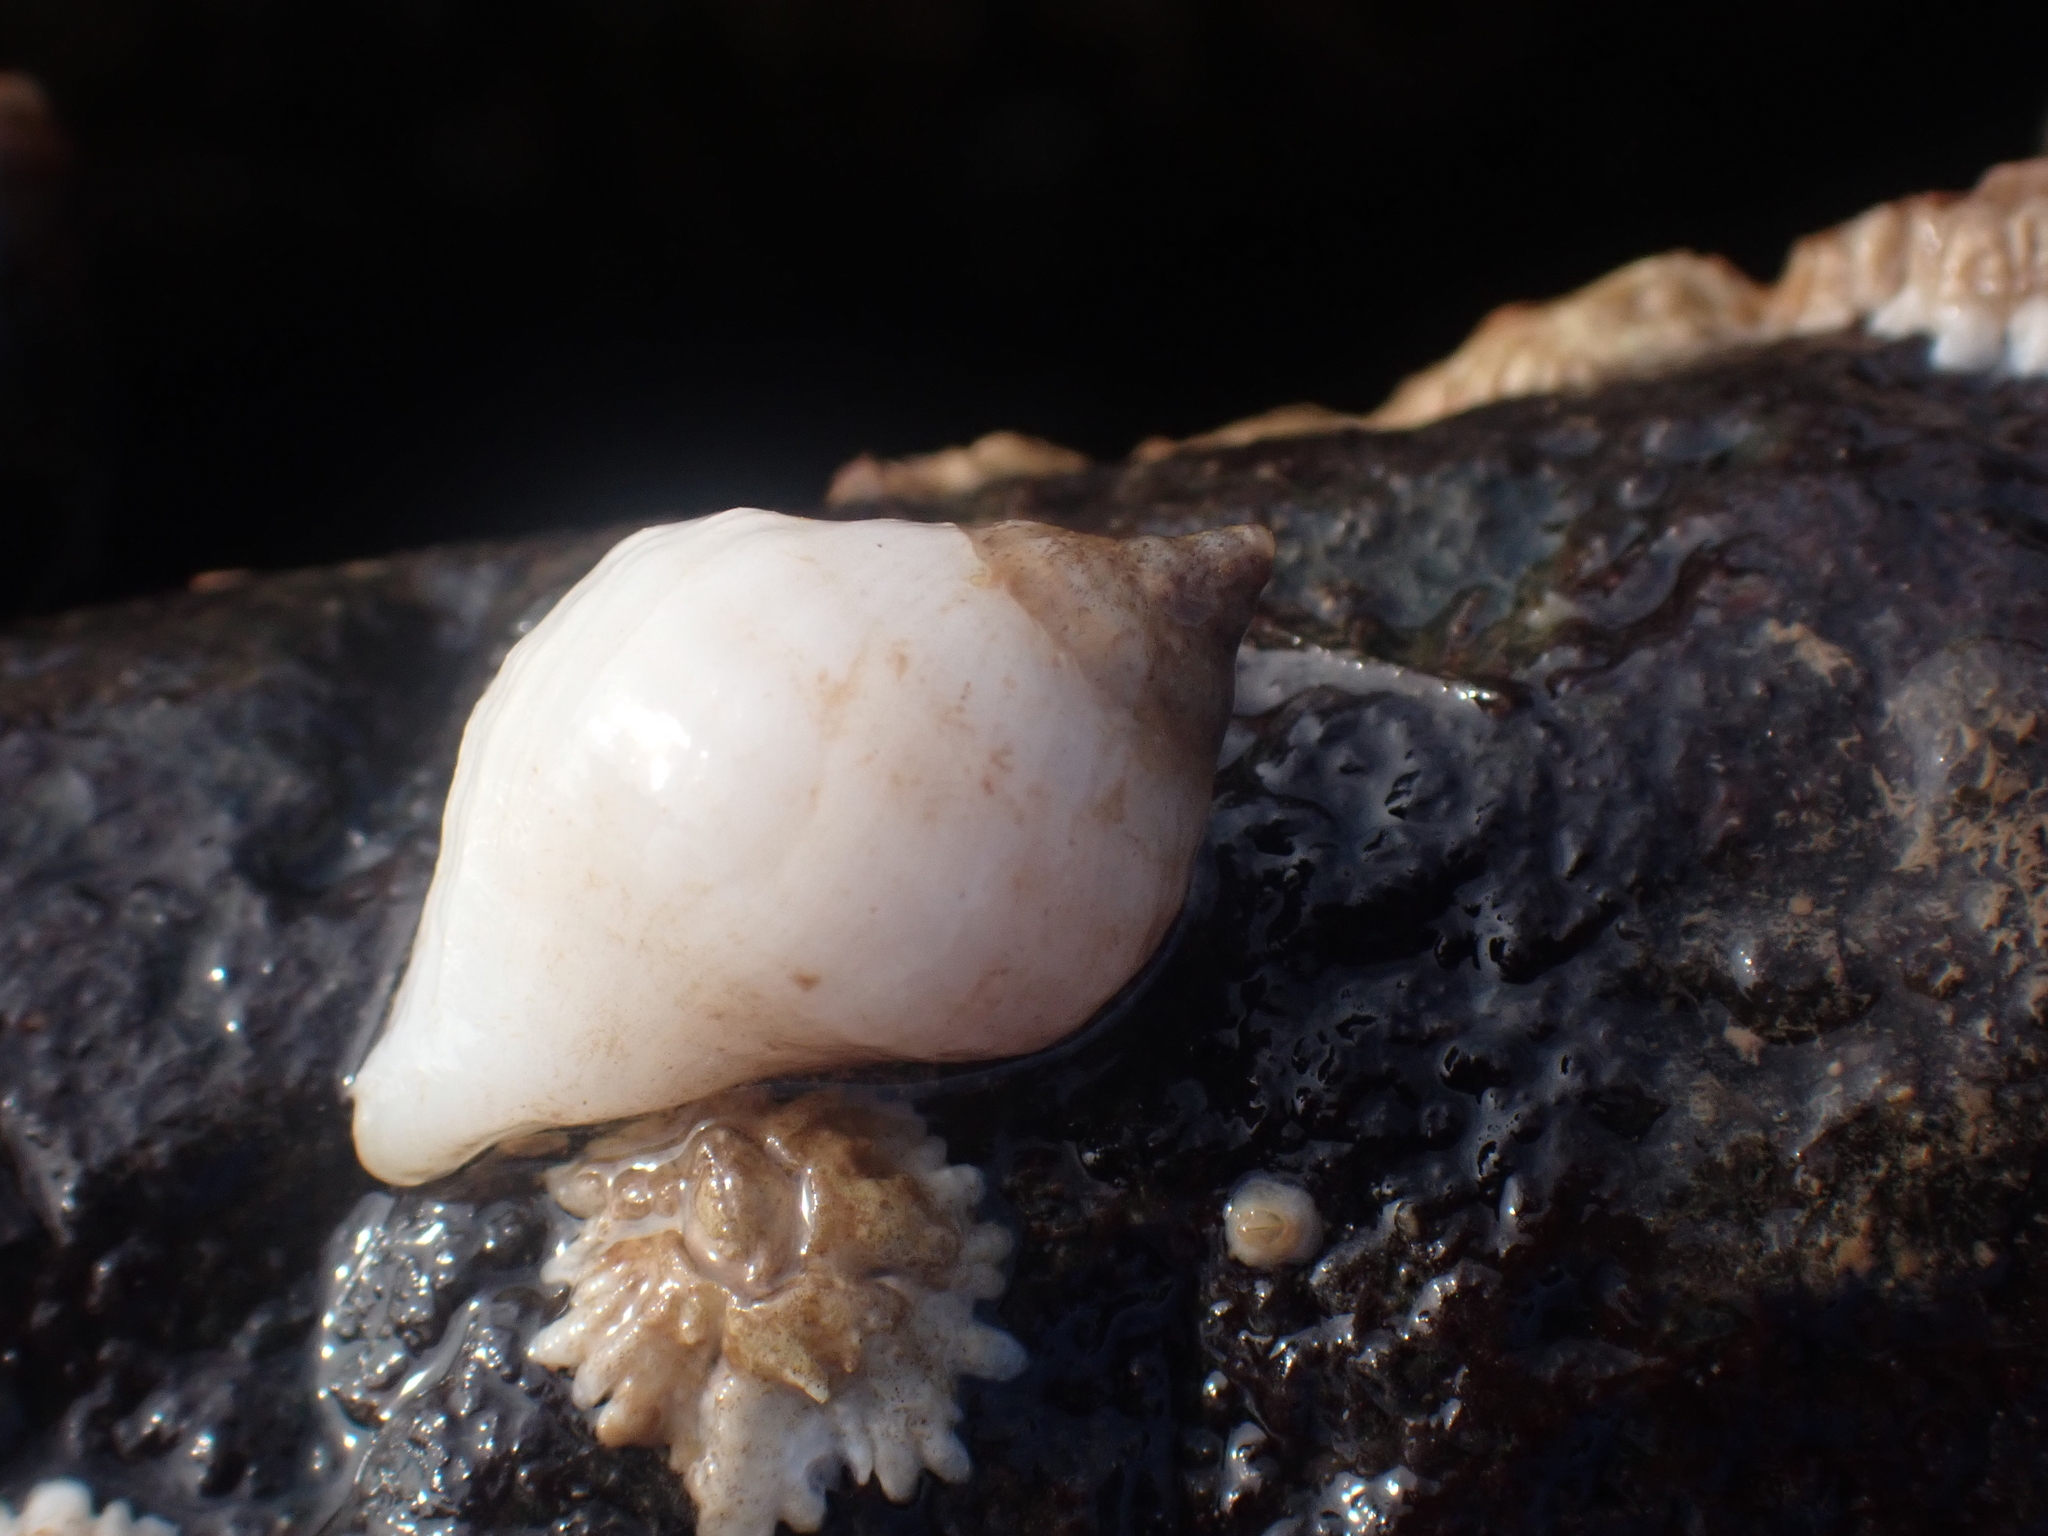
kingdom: Animalia
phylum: Mollusca
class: Gastropoda
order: Neogastropoda
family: Muricidae
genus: Nucella
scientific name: Nucella lapillus
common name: Dog whelk
